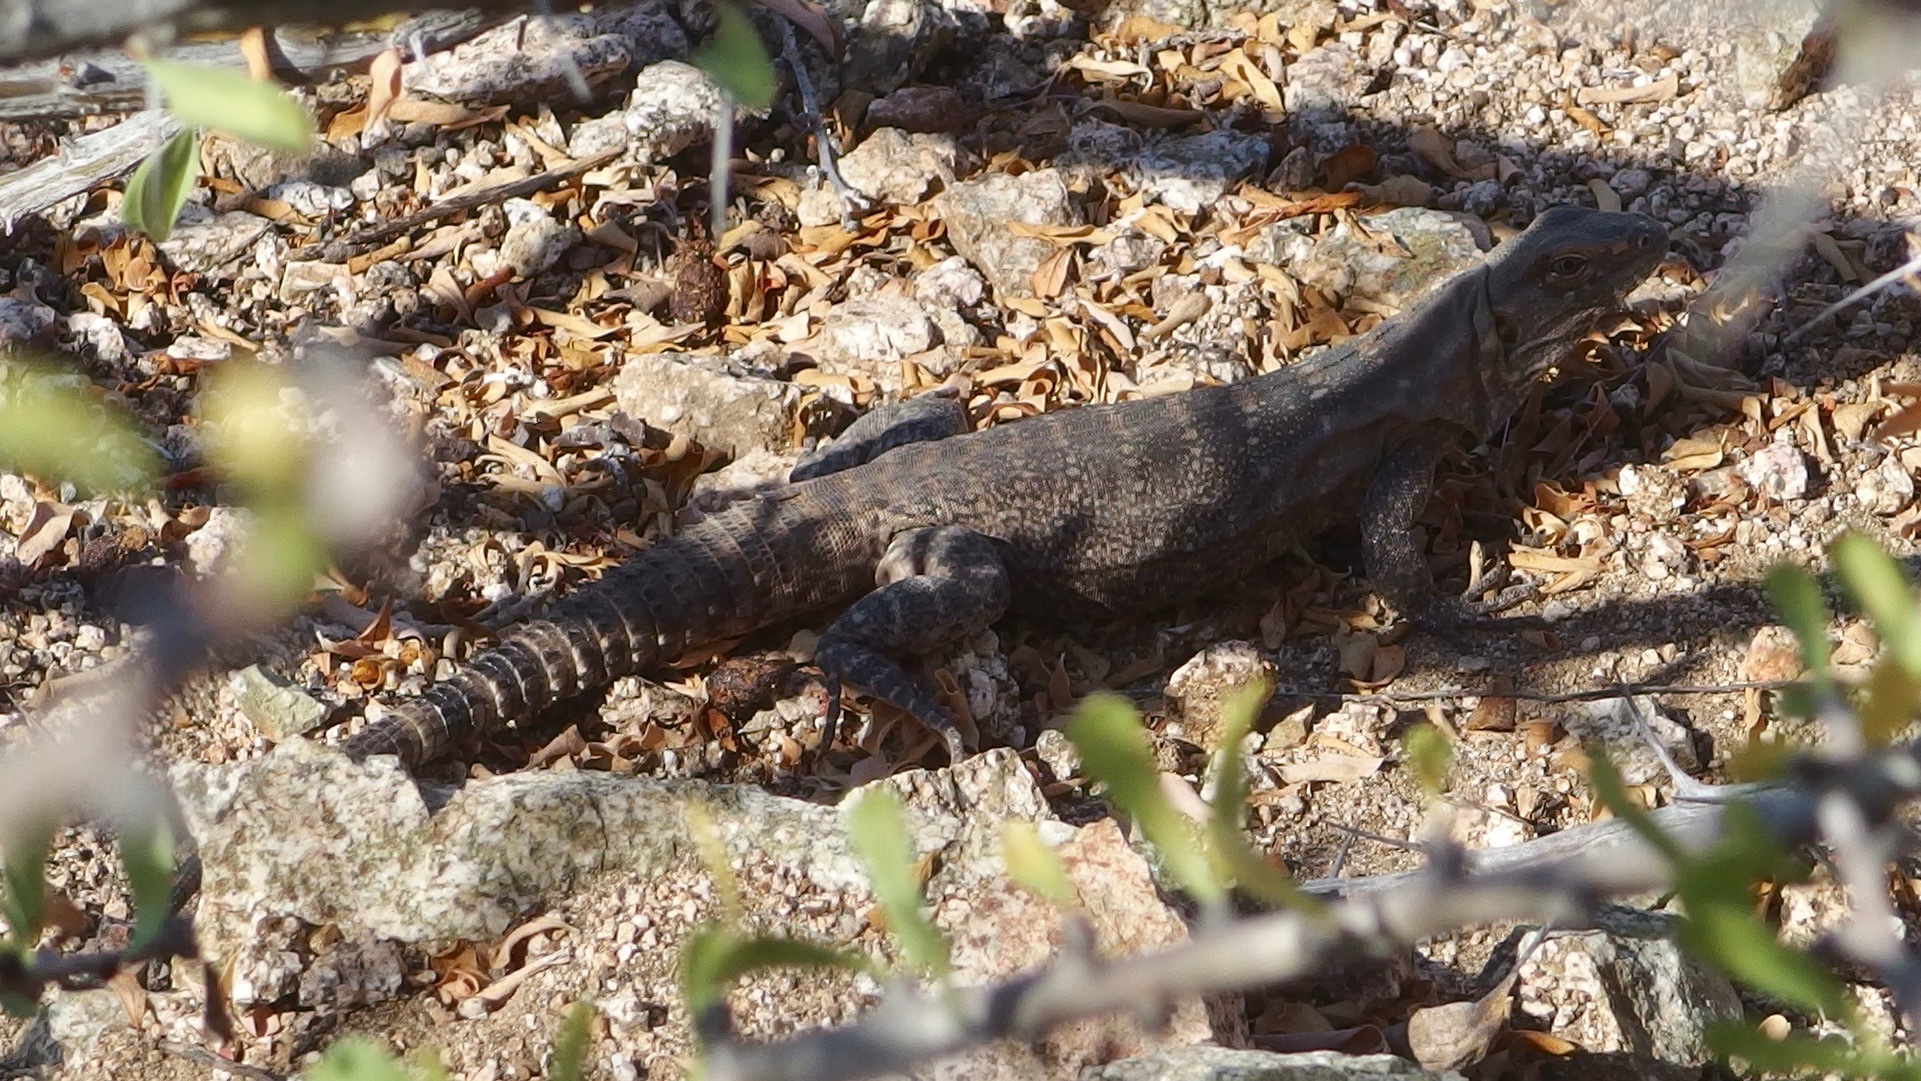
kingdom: Animalia
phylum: Chordata
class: Squamata
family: Iguanidae
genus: Ctenosaura
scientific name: Ctenosaura macrolopha
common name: Cape spinytail iguana
